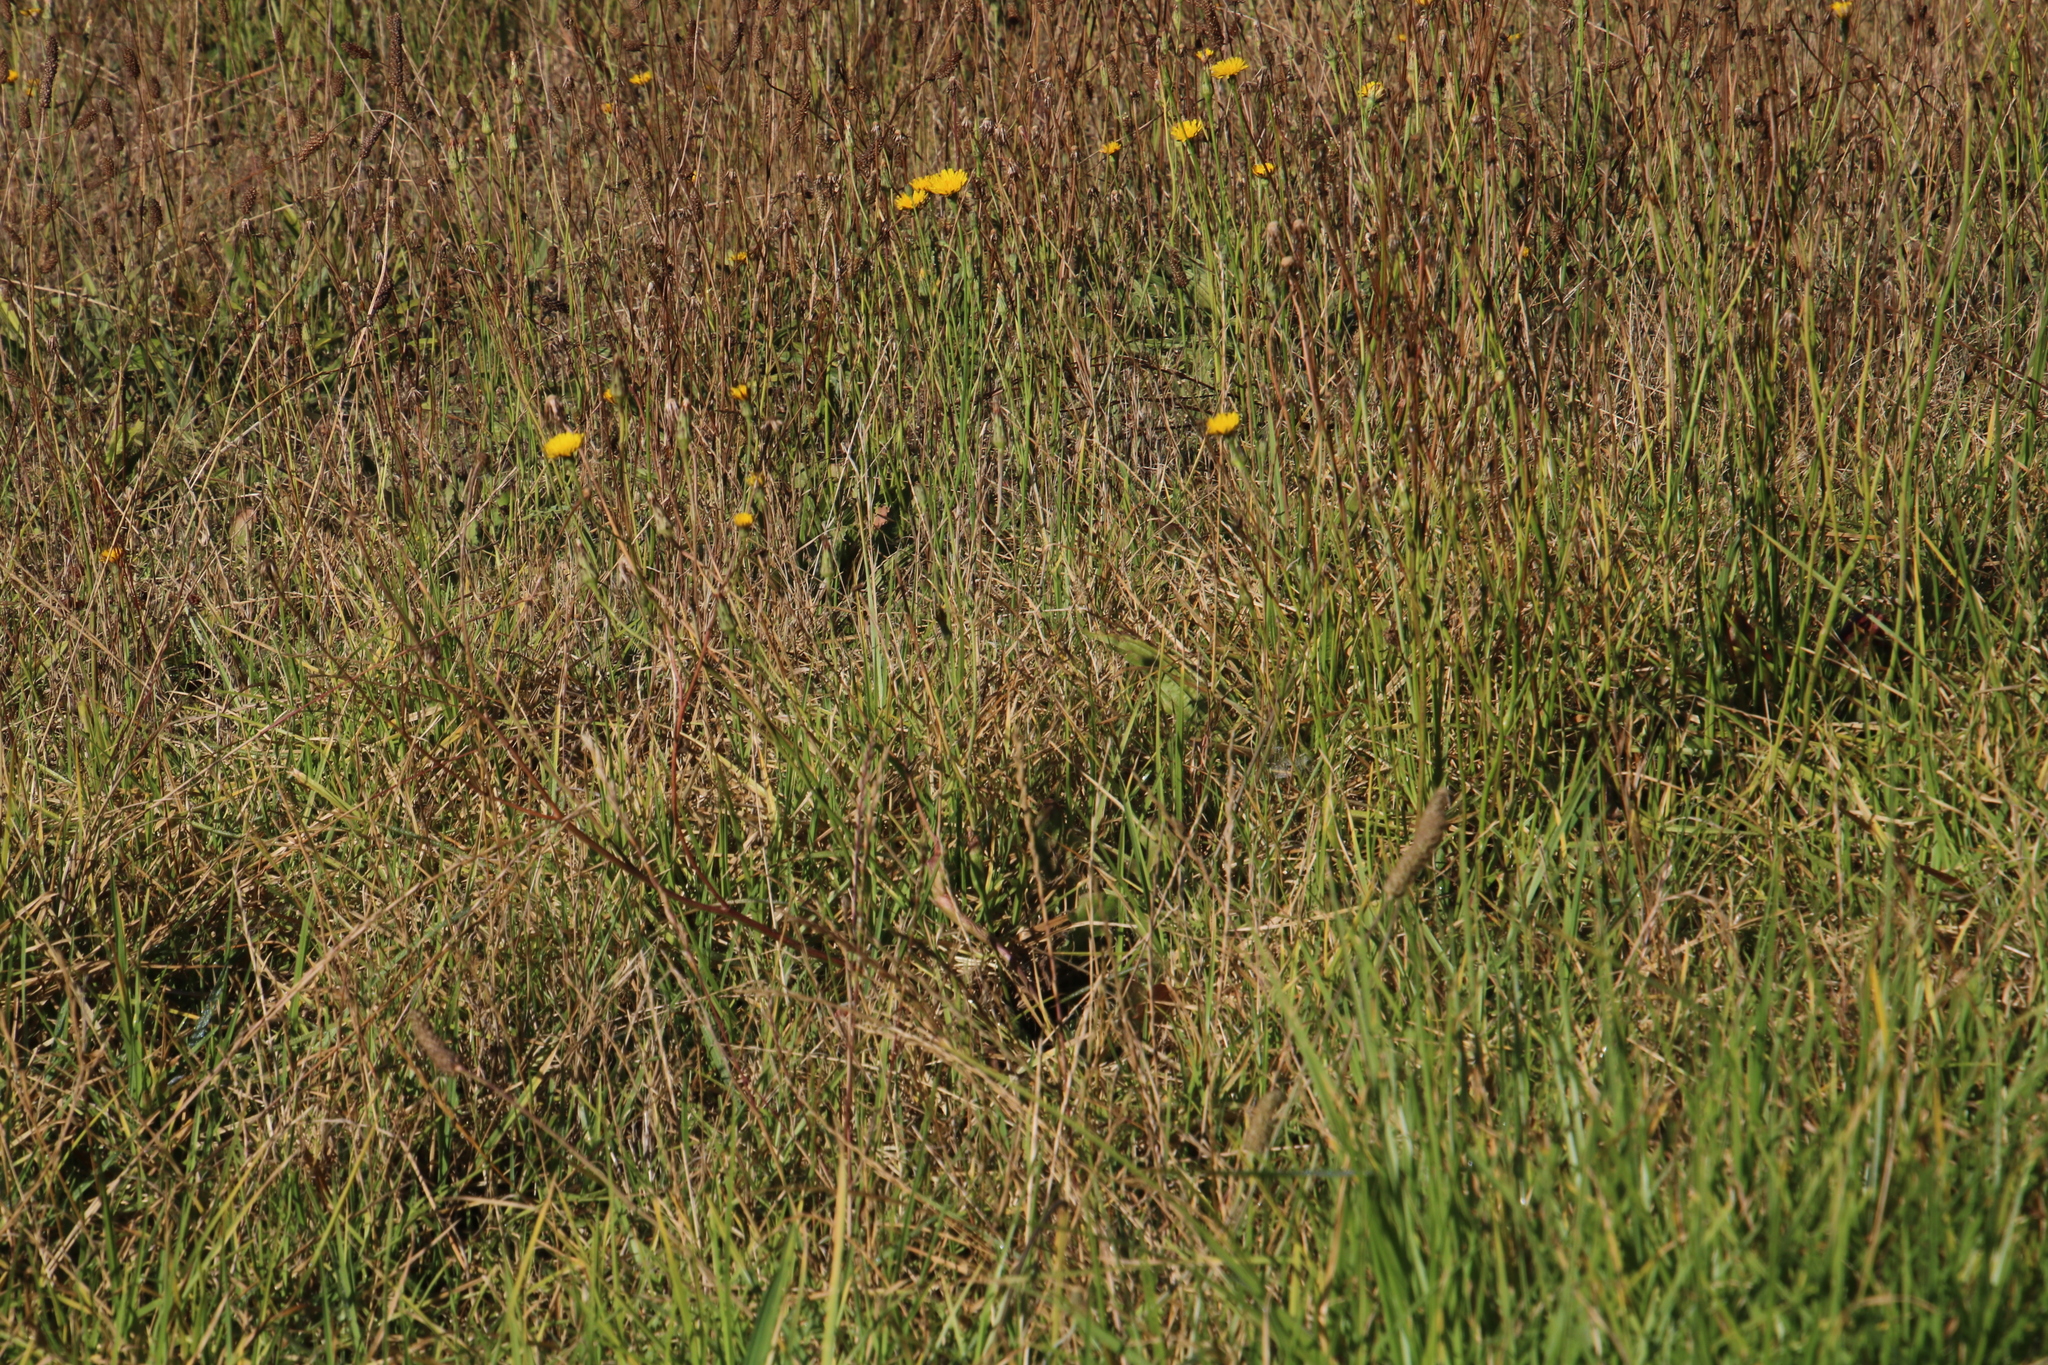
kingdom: Plantae
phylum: Tracheophyta
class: Magnoliopsida
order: Asterales
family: Asteraceae
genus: Hypochaeris
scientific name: Hypochaeris radicata
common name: Flatweed
